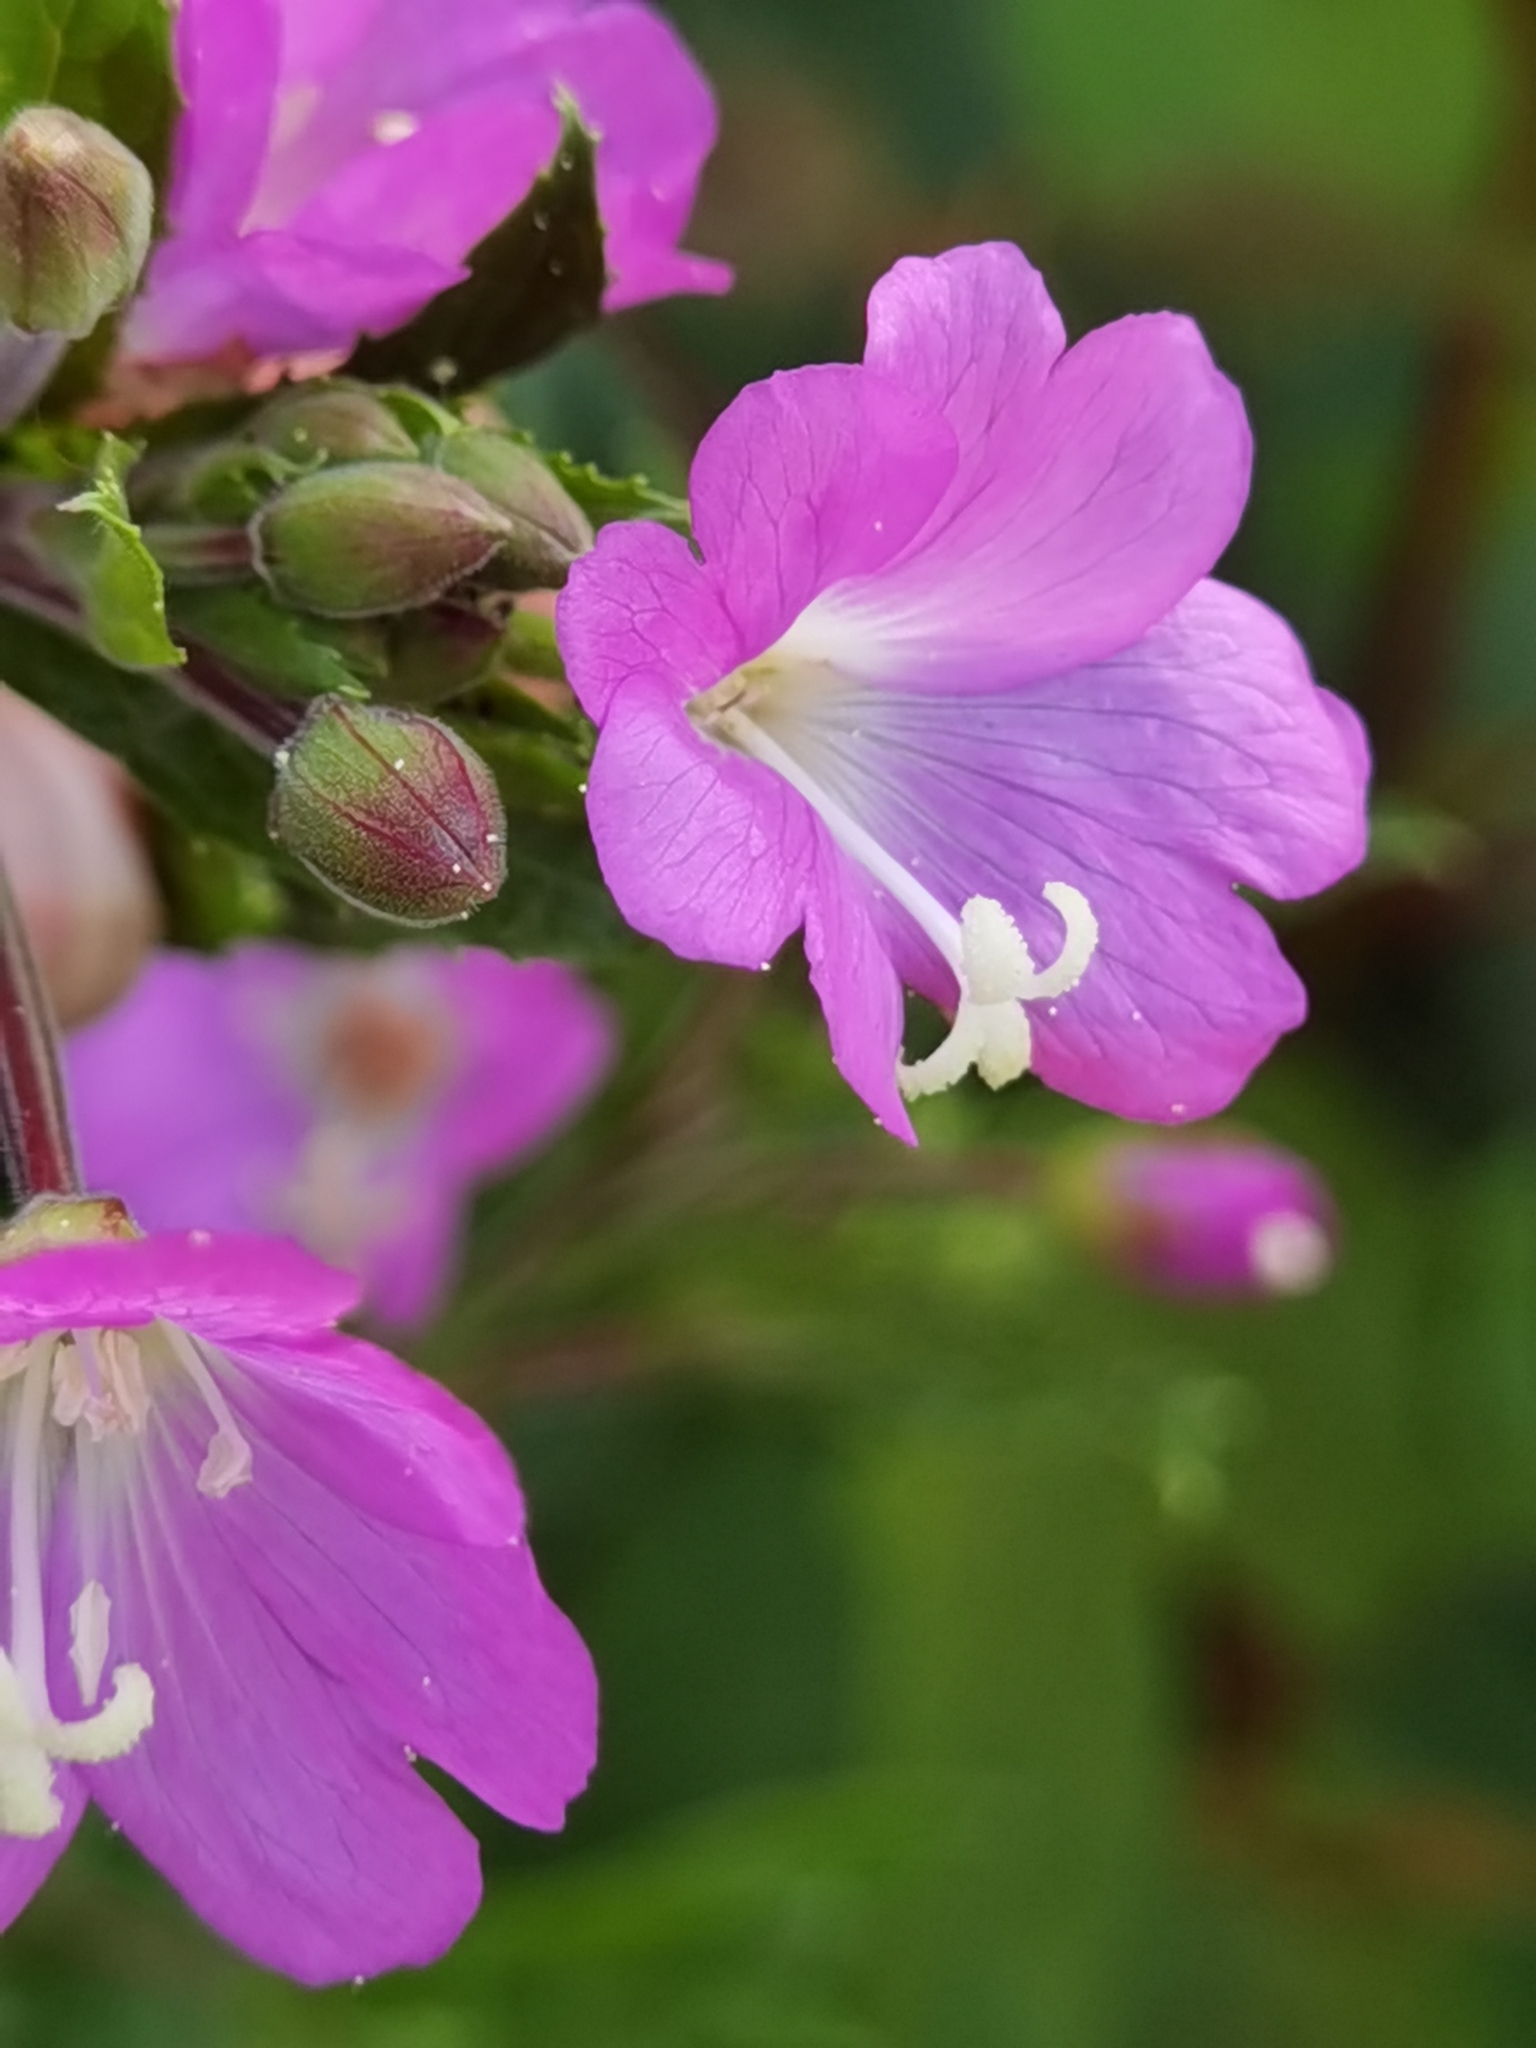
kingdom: Plantae
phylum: Tracheophyta
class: Magnoliopsida
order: Myrtales
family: Onagraceae
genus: Epilobium
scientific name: Epilobium hirsutum
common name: Great willowherb
